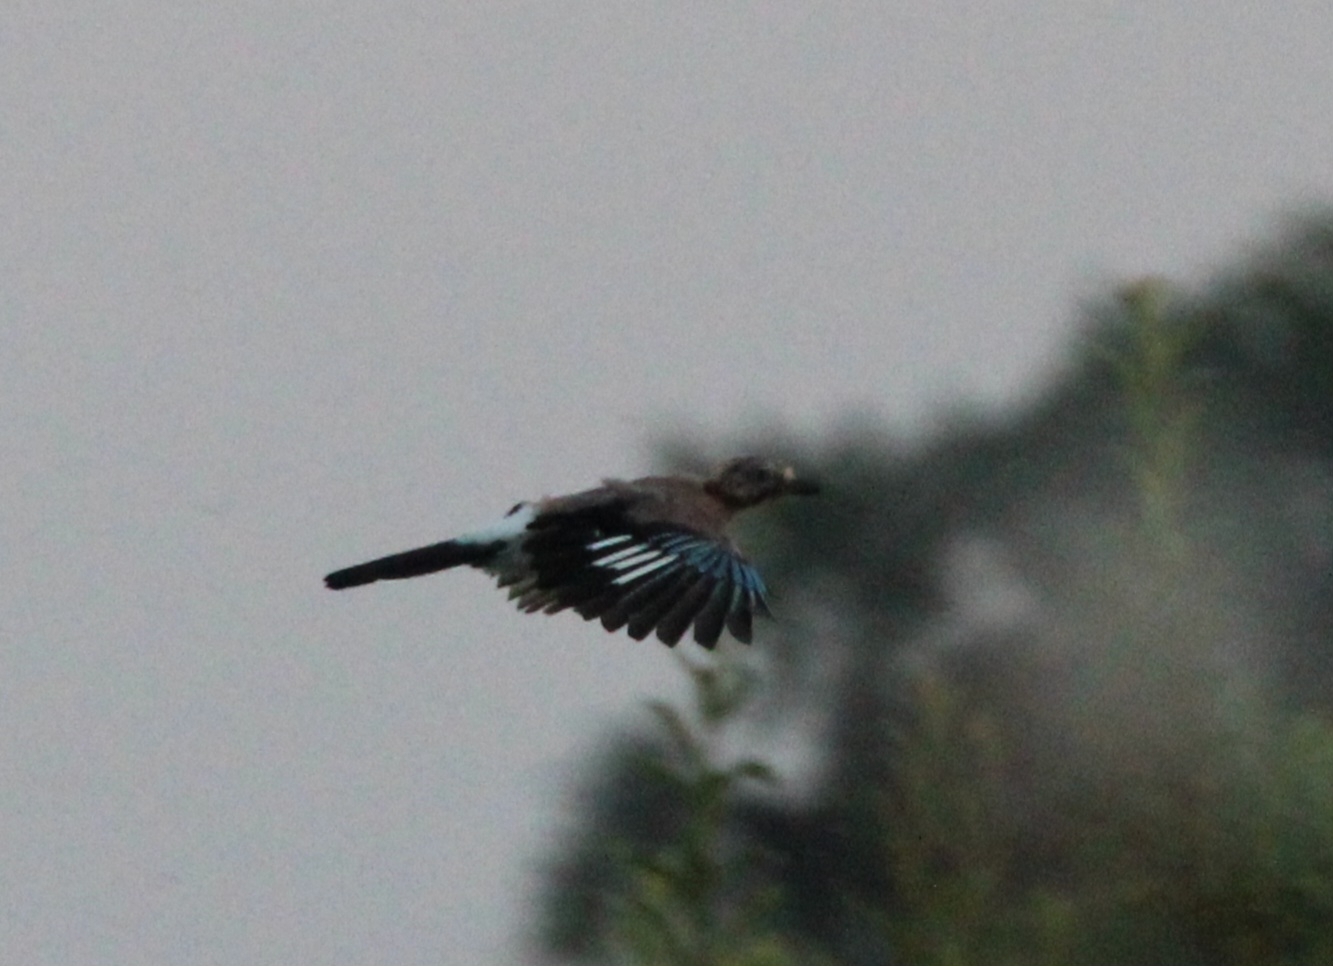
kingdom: Animalia
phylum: Chordata
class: Aves
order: Passeriformes
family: Corvidae
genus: Garrulus
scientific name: Garrulus glandarius
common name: Eurasian jay
